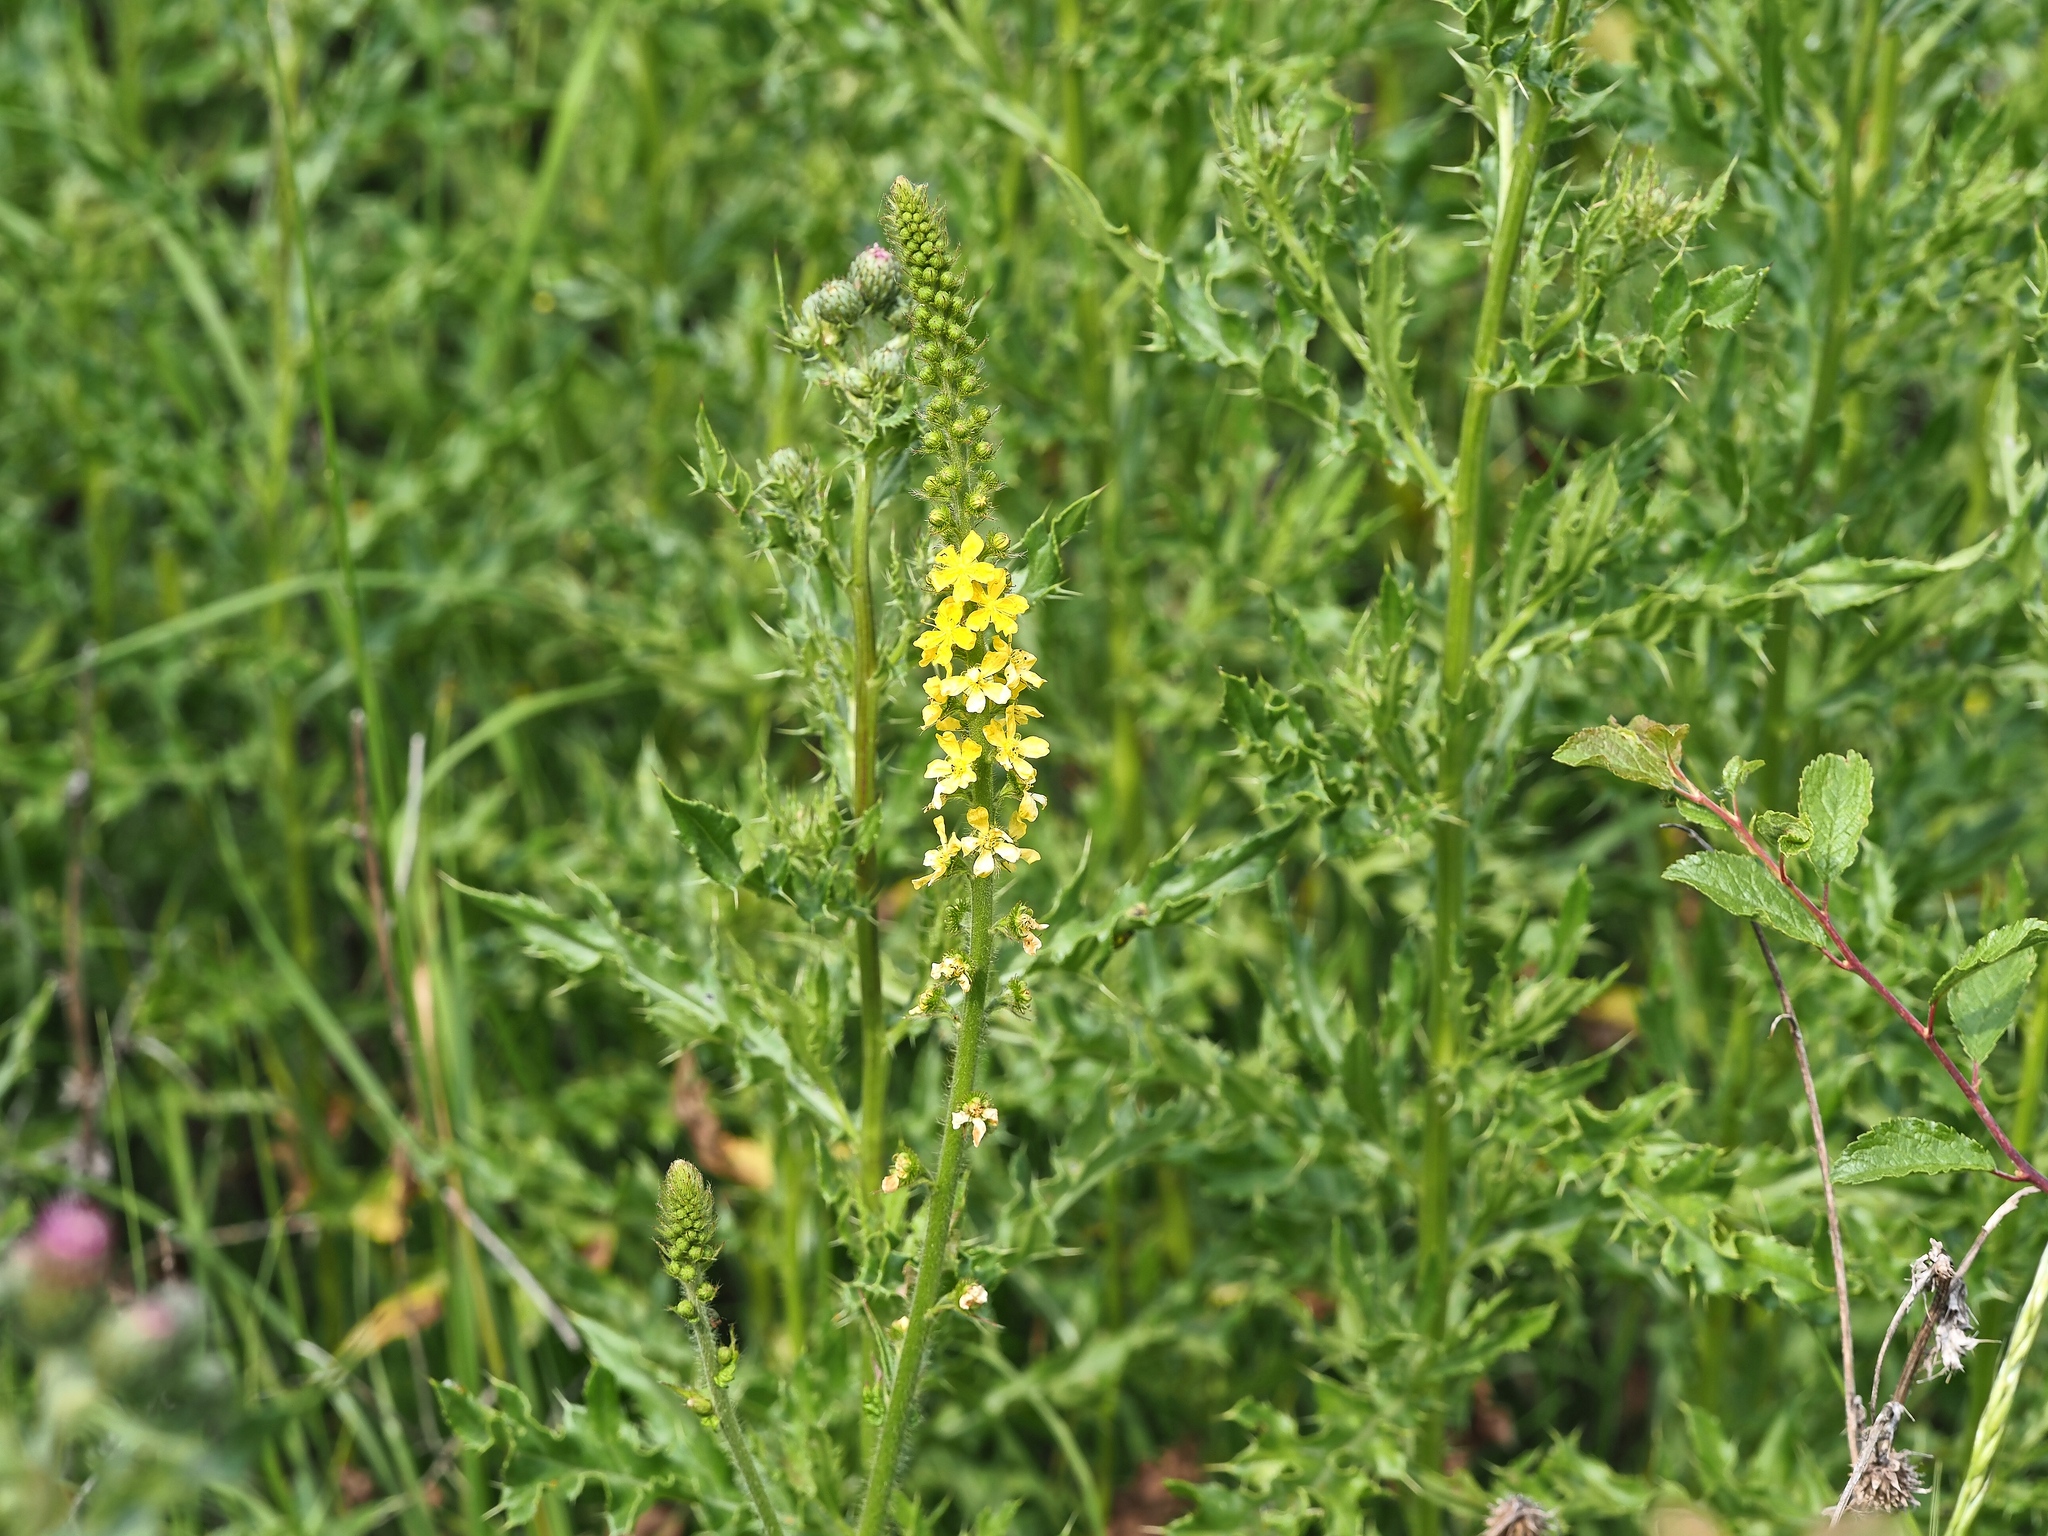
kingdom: Plantae
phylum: Tracheophyta
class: Magnoliopsida
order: Rosales
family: Rosaceae
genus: Agrimonia
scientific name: Agrimonia eupatoria
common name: Agrimony
